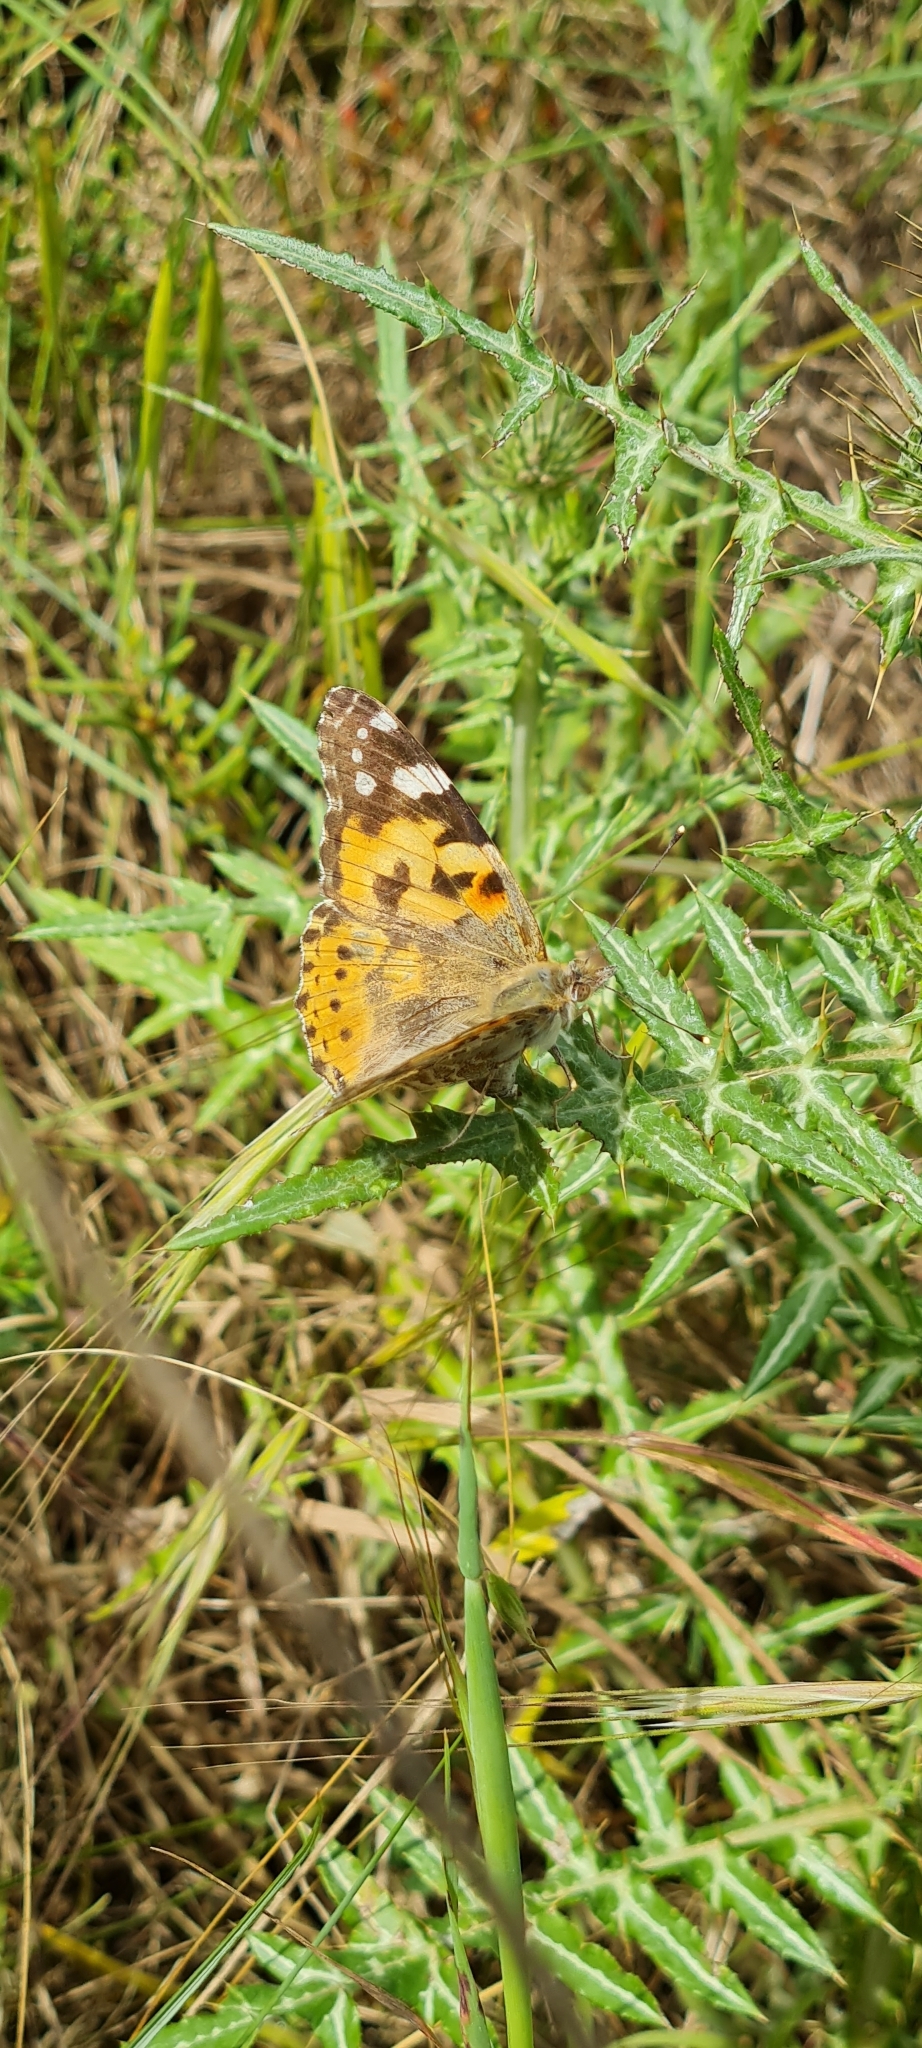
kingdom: Animalia
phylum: Arthropoda
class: Insecta
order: Lepidoptera
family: Nymphalidae
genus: Vanessa
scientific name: Vanessa cardui
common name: Painted lady
